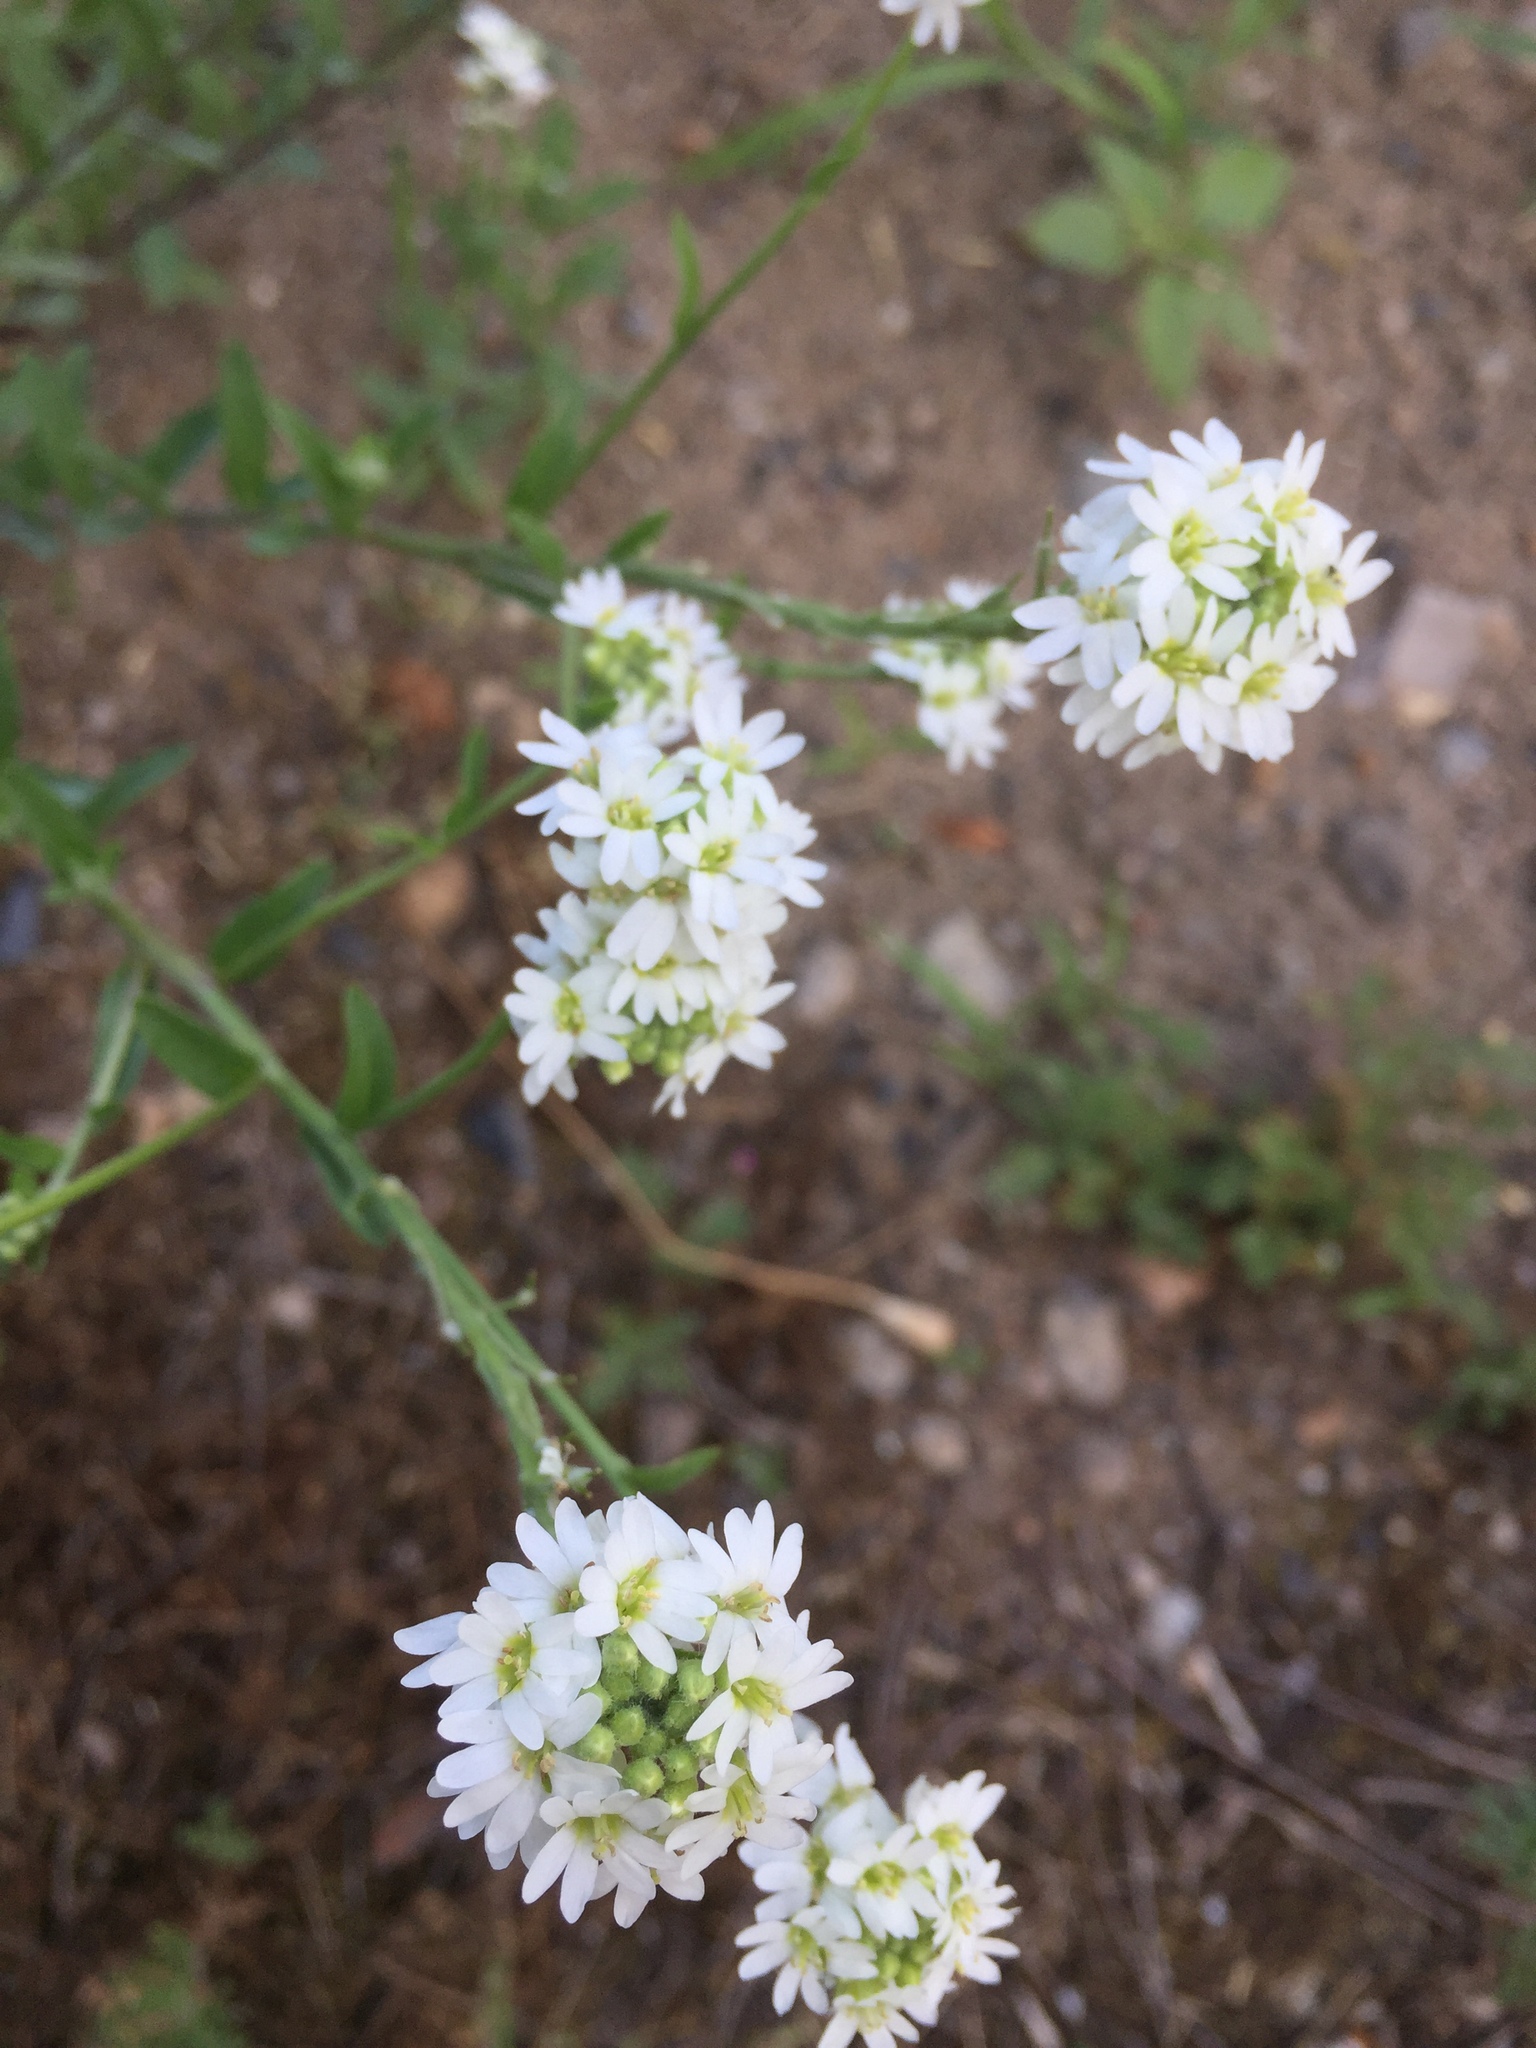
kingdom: Plantae
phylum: Tracheophyta
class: Magnoliopsida
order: Brassicales
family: Brassicaceae
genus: Berteroa
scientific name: Berteroa incana
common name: Hoary alison
